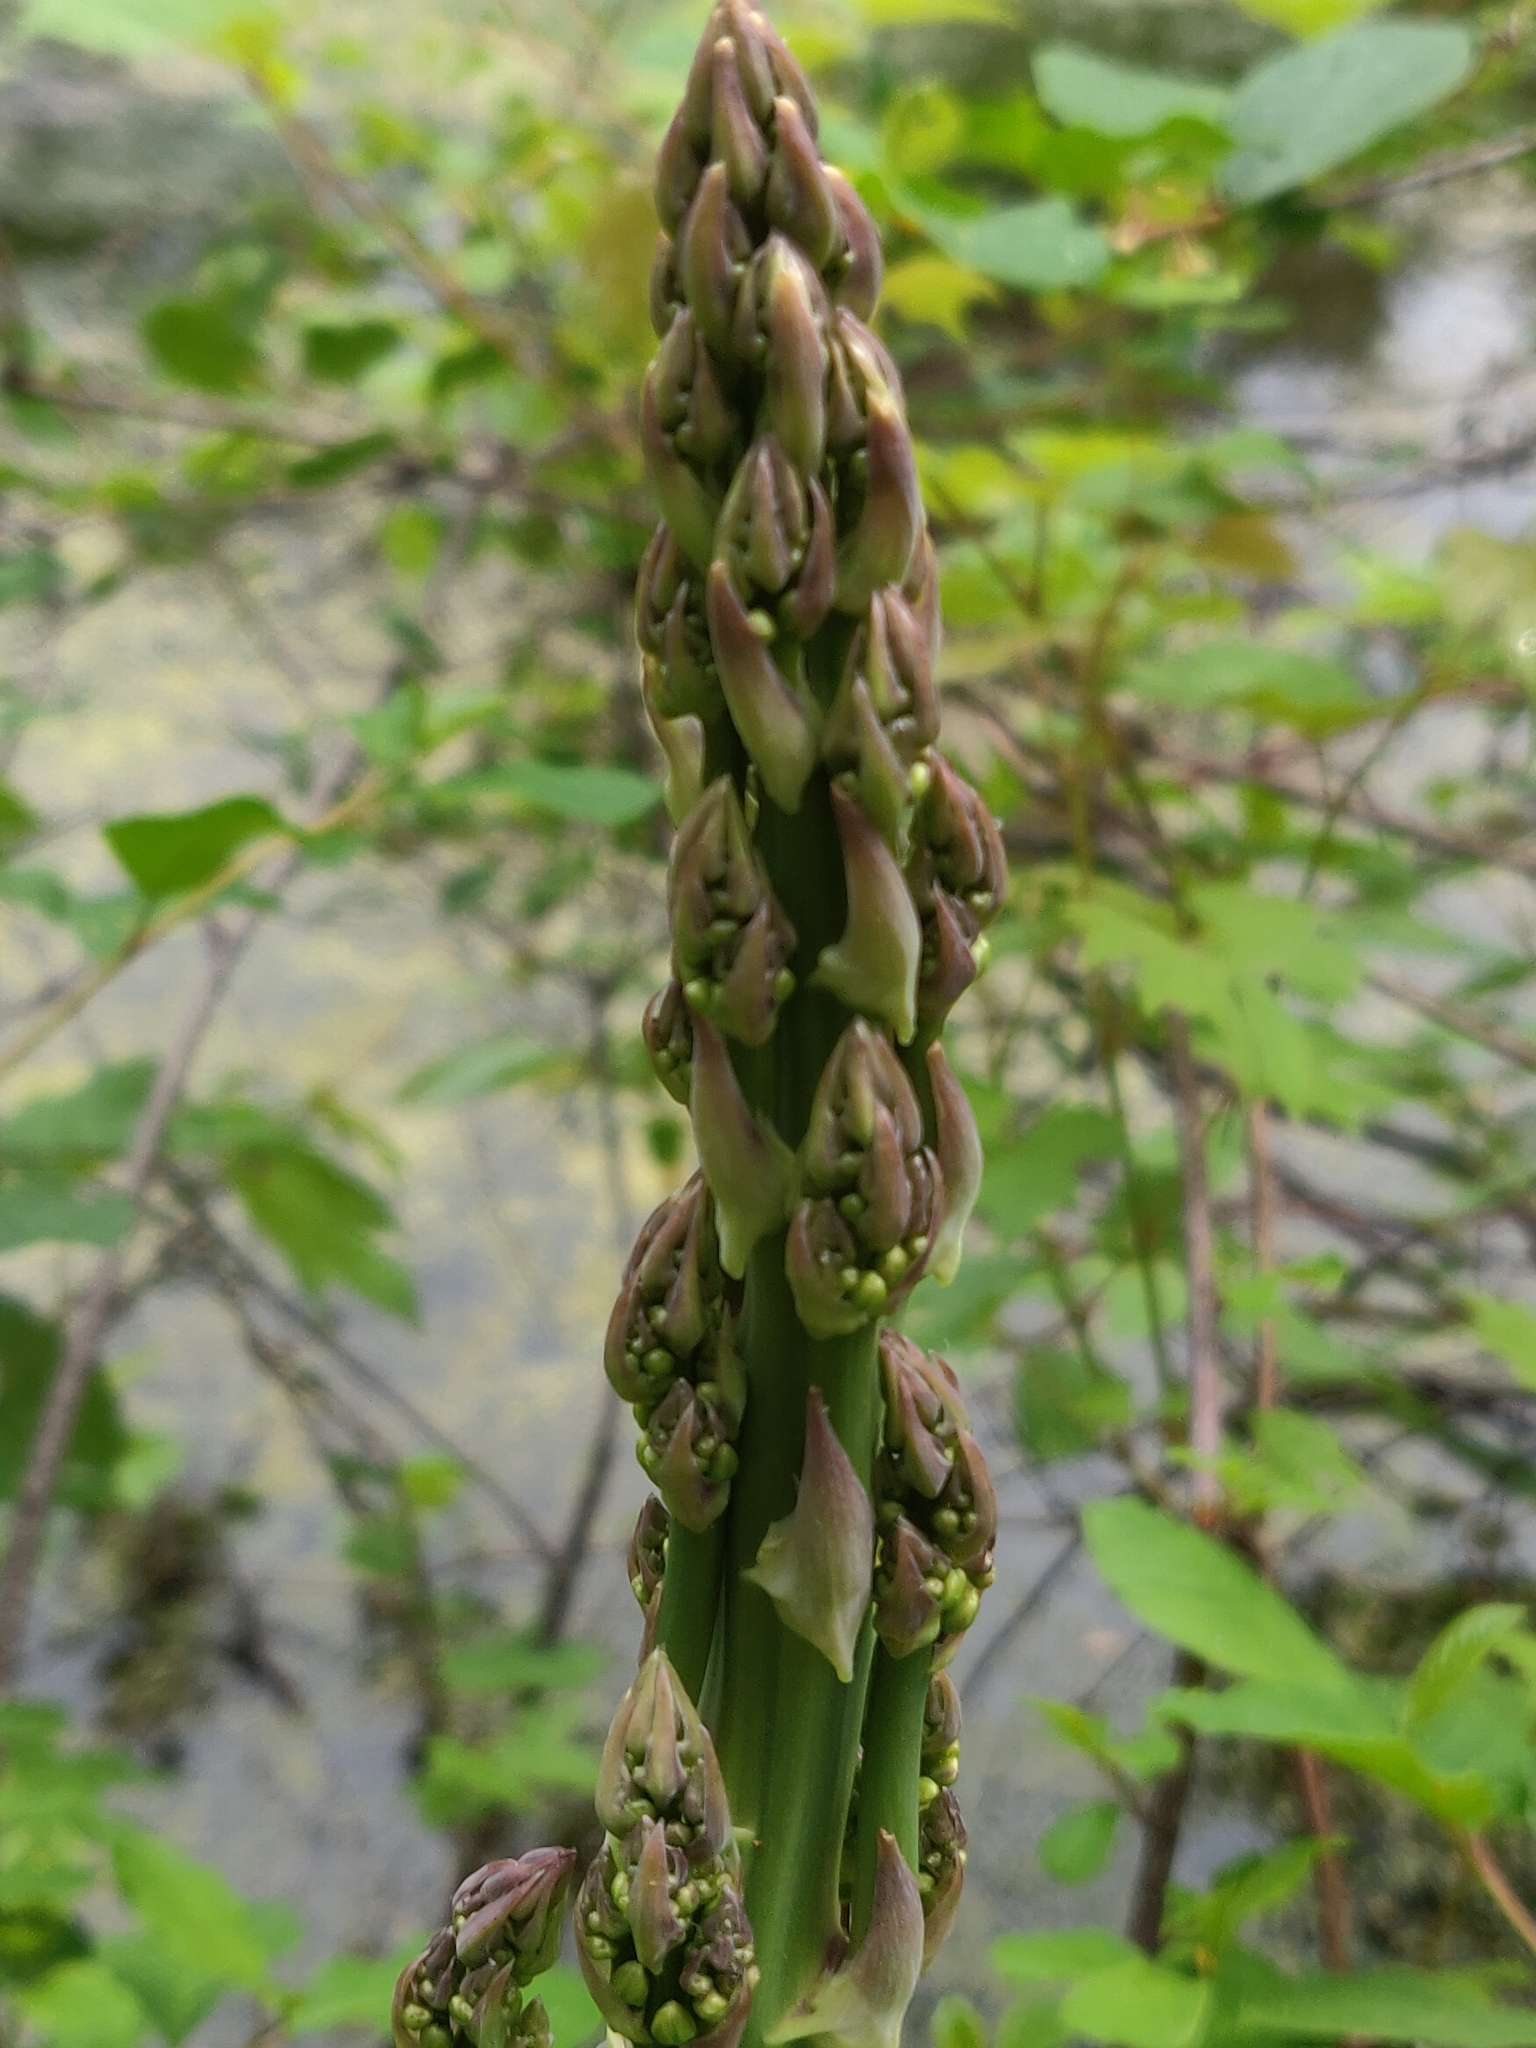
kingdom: Plantae
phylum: Tracheophyta
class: Liliopsida
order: Asparagales
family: Asparagaceae
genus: Asparagus
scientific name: Asparagus officinalis
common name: Garden asparagus
